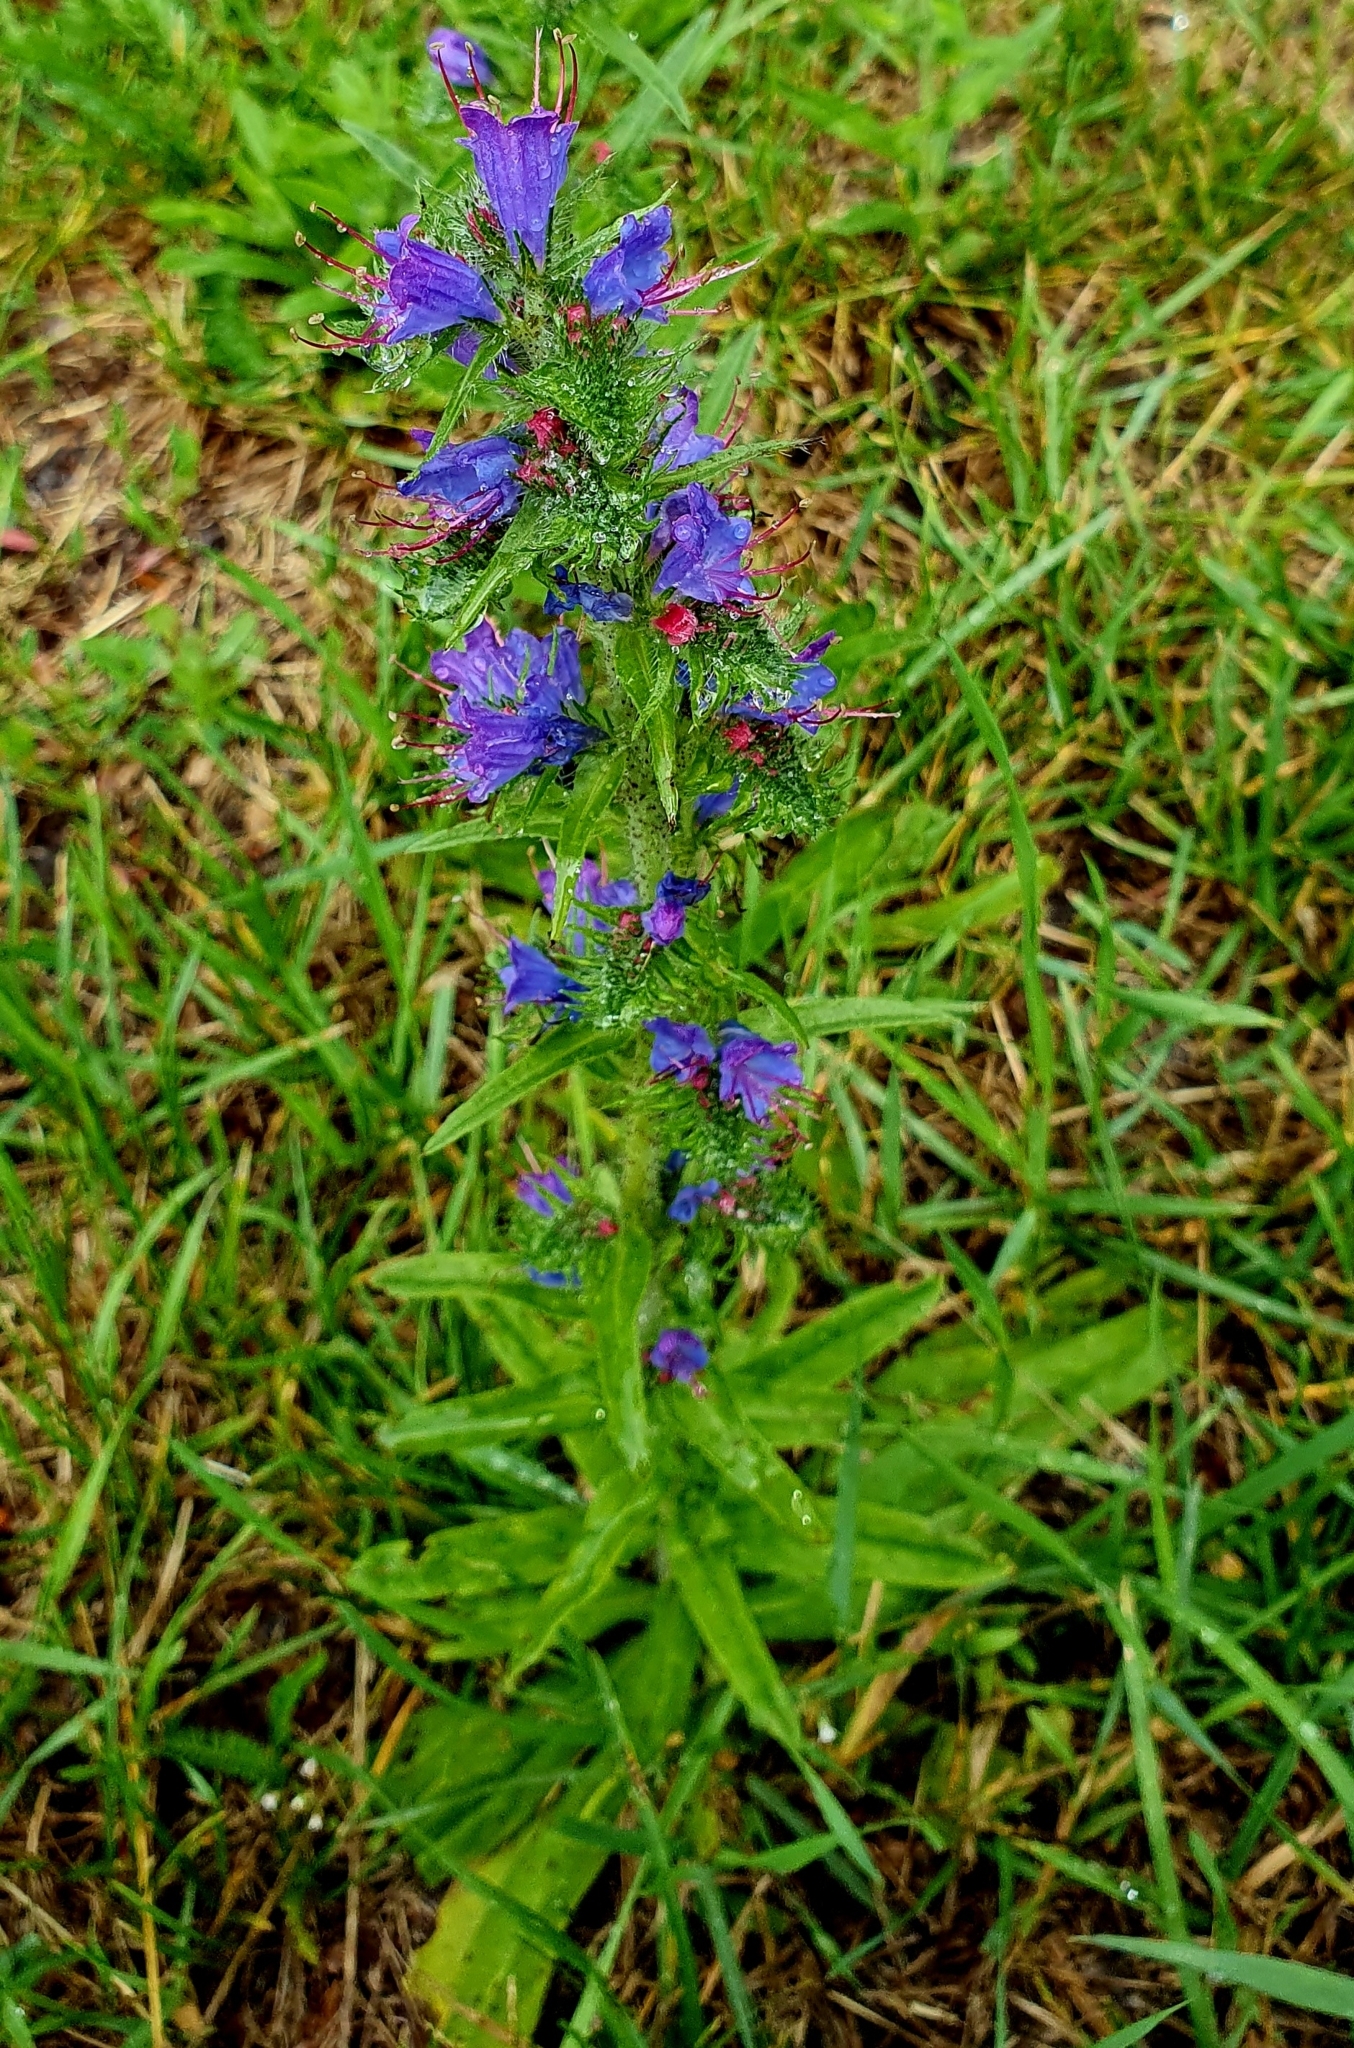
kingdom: Plantae
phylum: Tracheophyta
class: Magnoliopsida
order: Boraginales
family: Boraginaceae
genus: Echium
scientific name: Echium vulgare
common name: Common viper's bugloss
